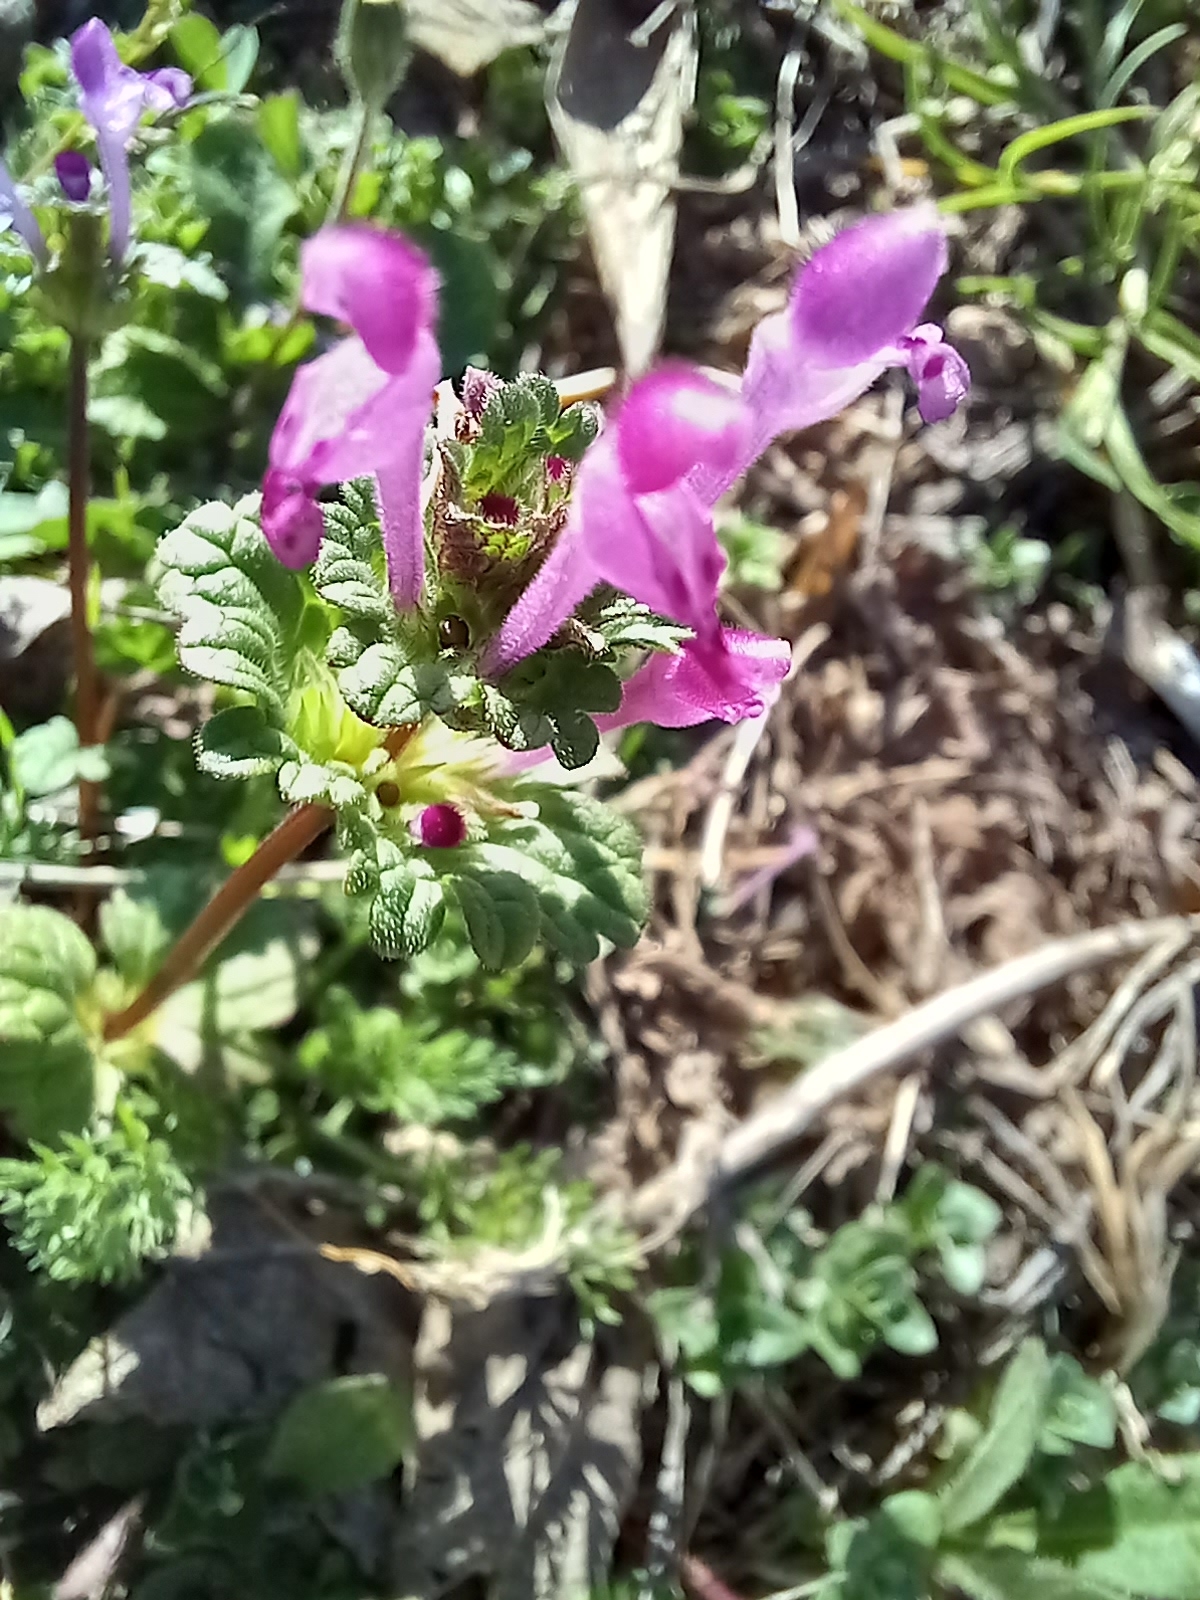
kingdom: Plantae
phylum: Tracheophyta
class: Magnoliopsida
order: Lamiales
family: Lamiaceae
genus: Lamium
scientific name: Lamium amplexicaule
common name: Henbit dead-nettle
